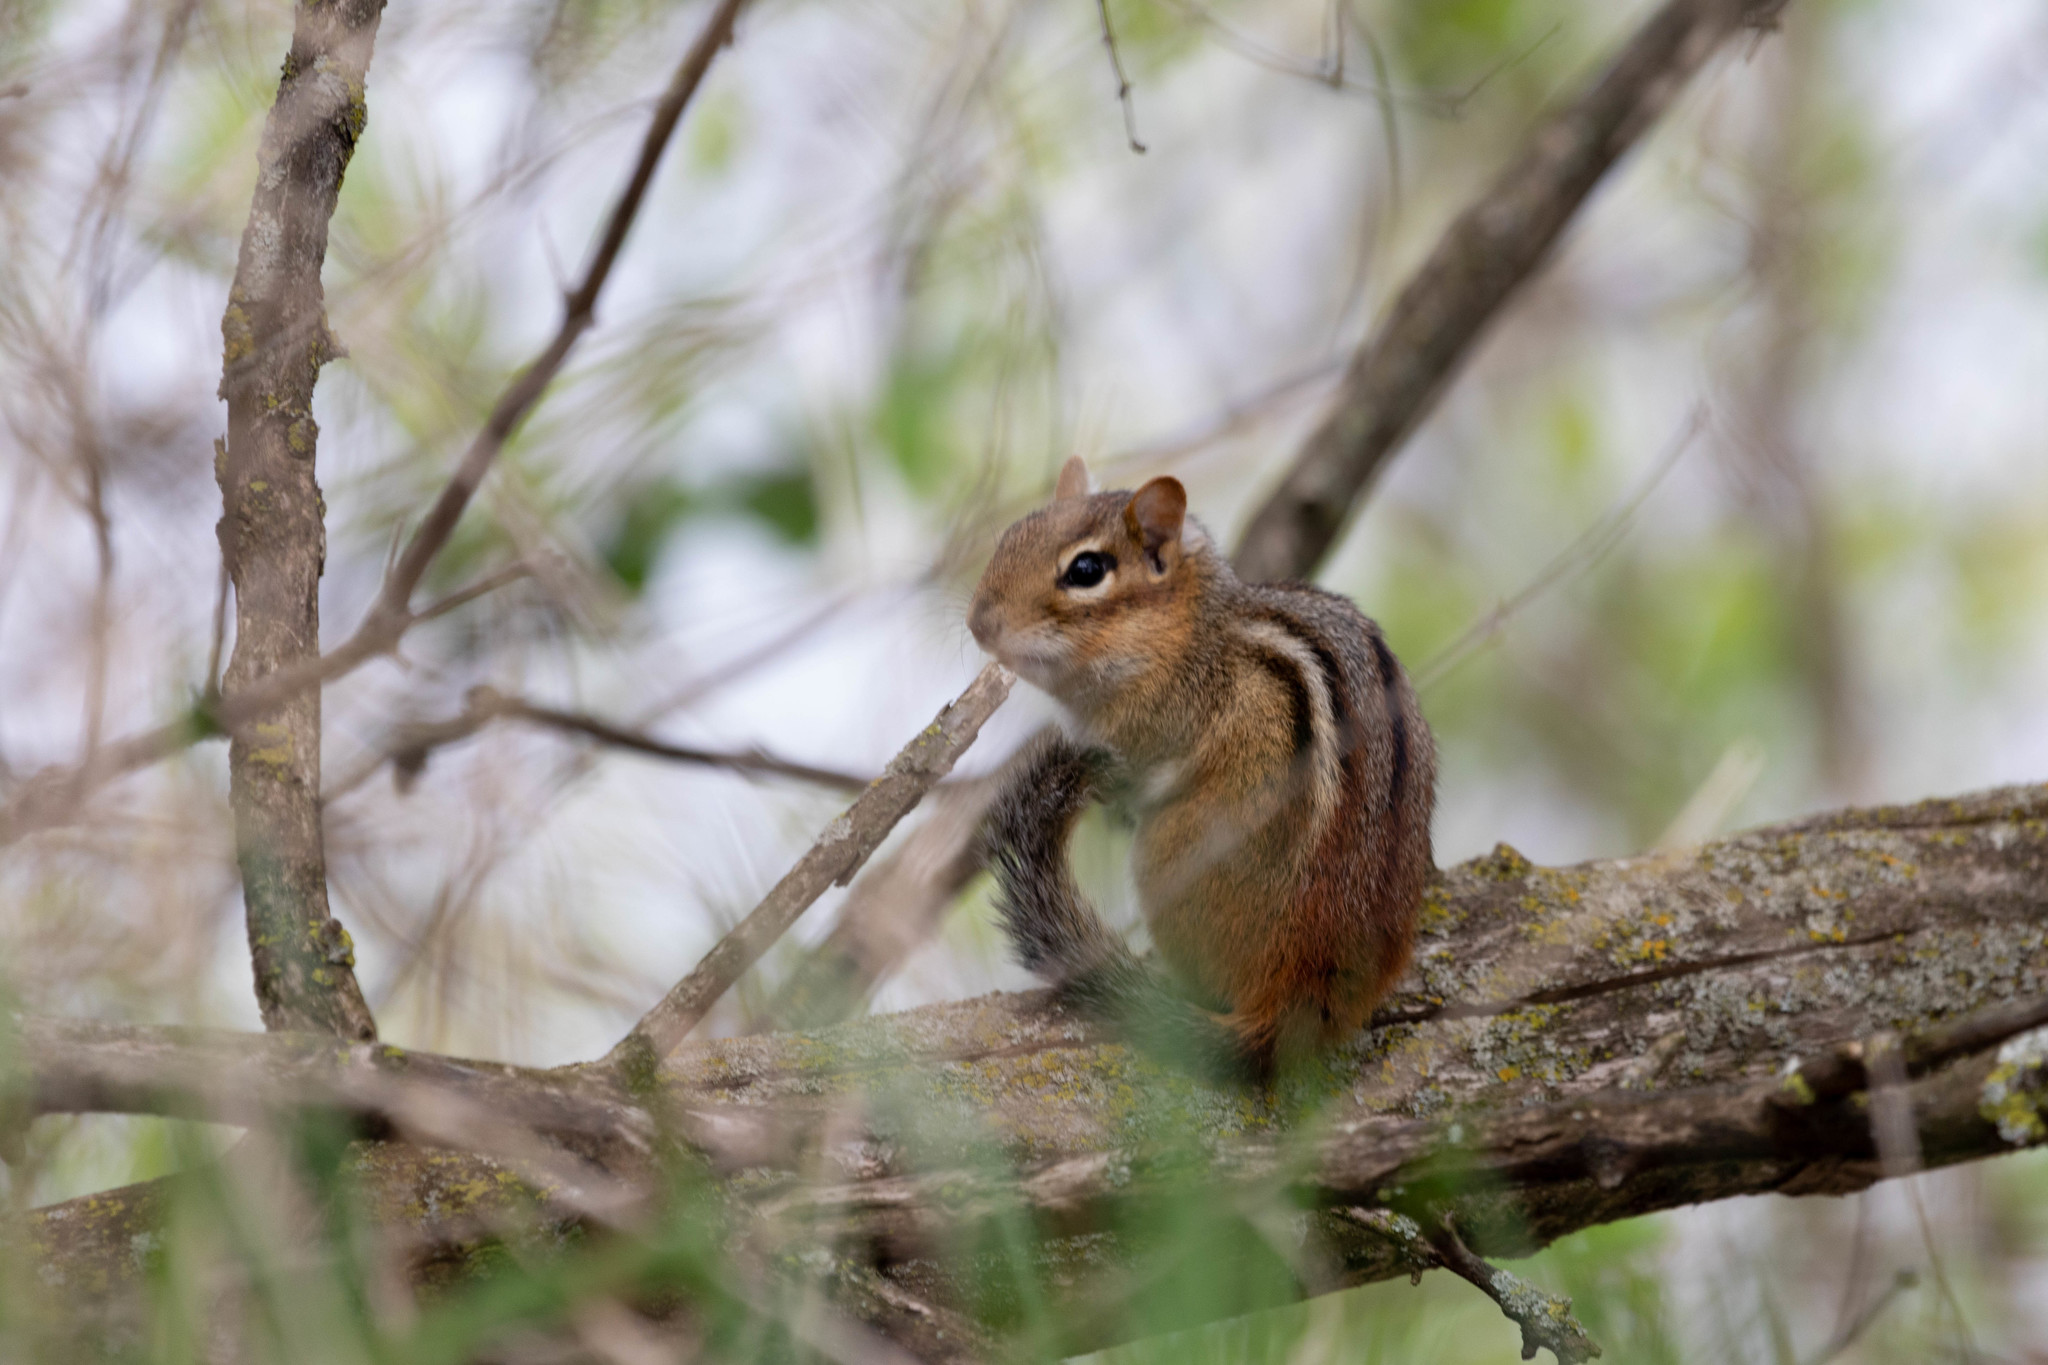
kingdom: Animalia
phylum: Chordata
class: Mammalia
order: Rodentia
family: Sciuridae
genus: Tamias
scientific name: Tamias striatus
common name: Eastern chipmunk
